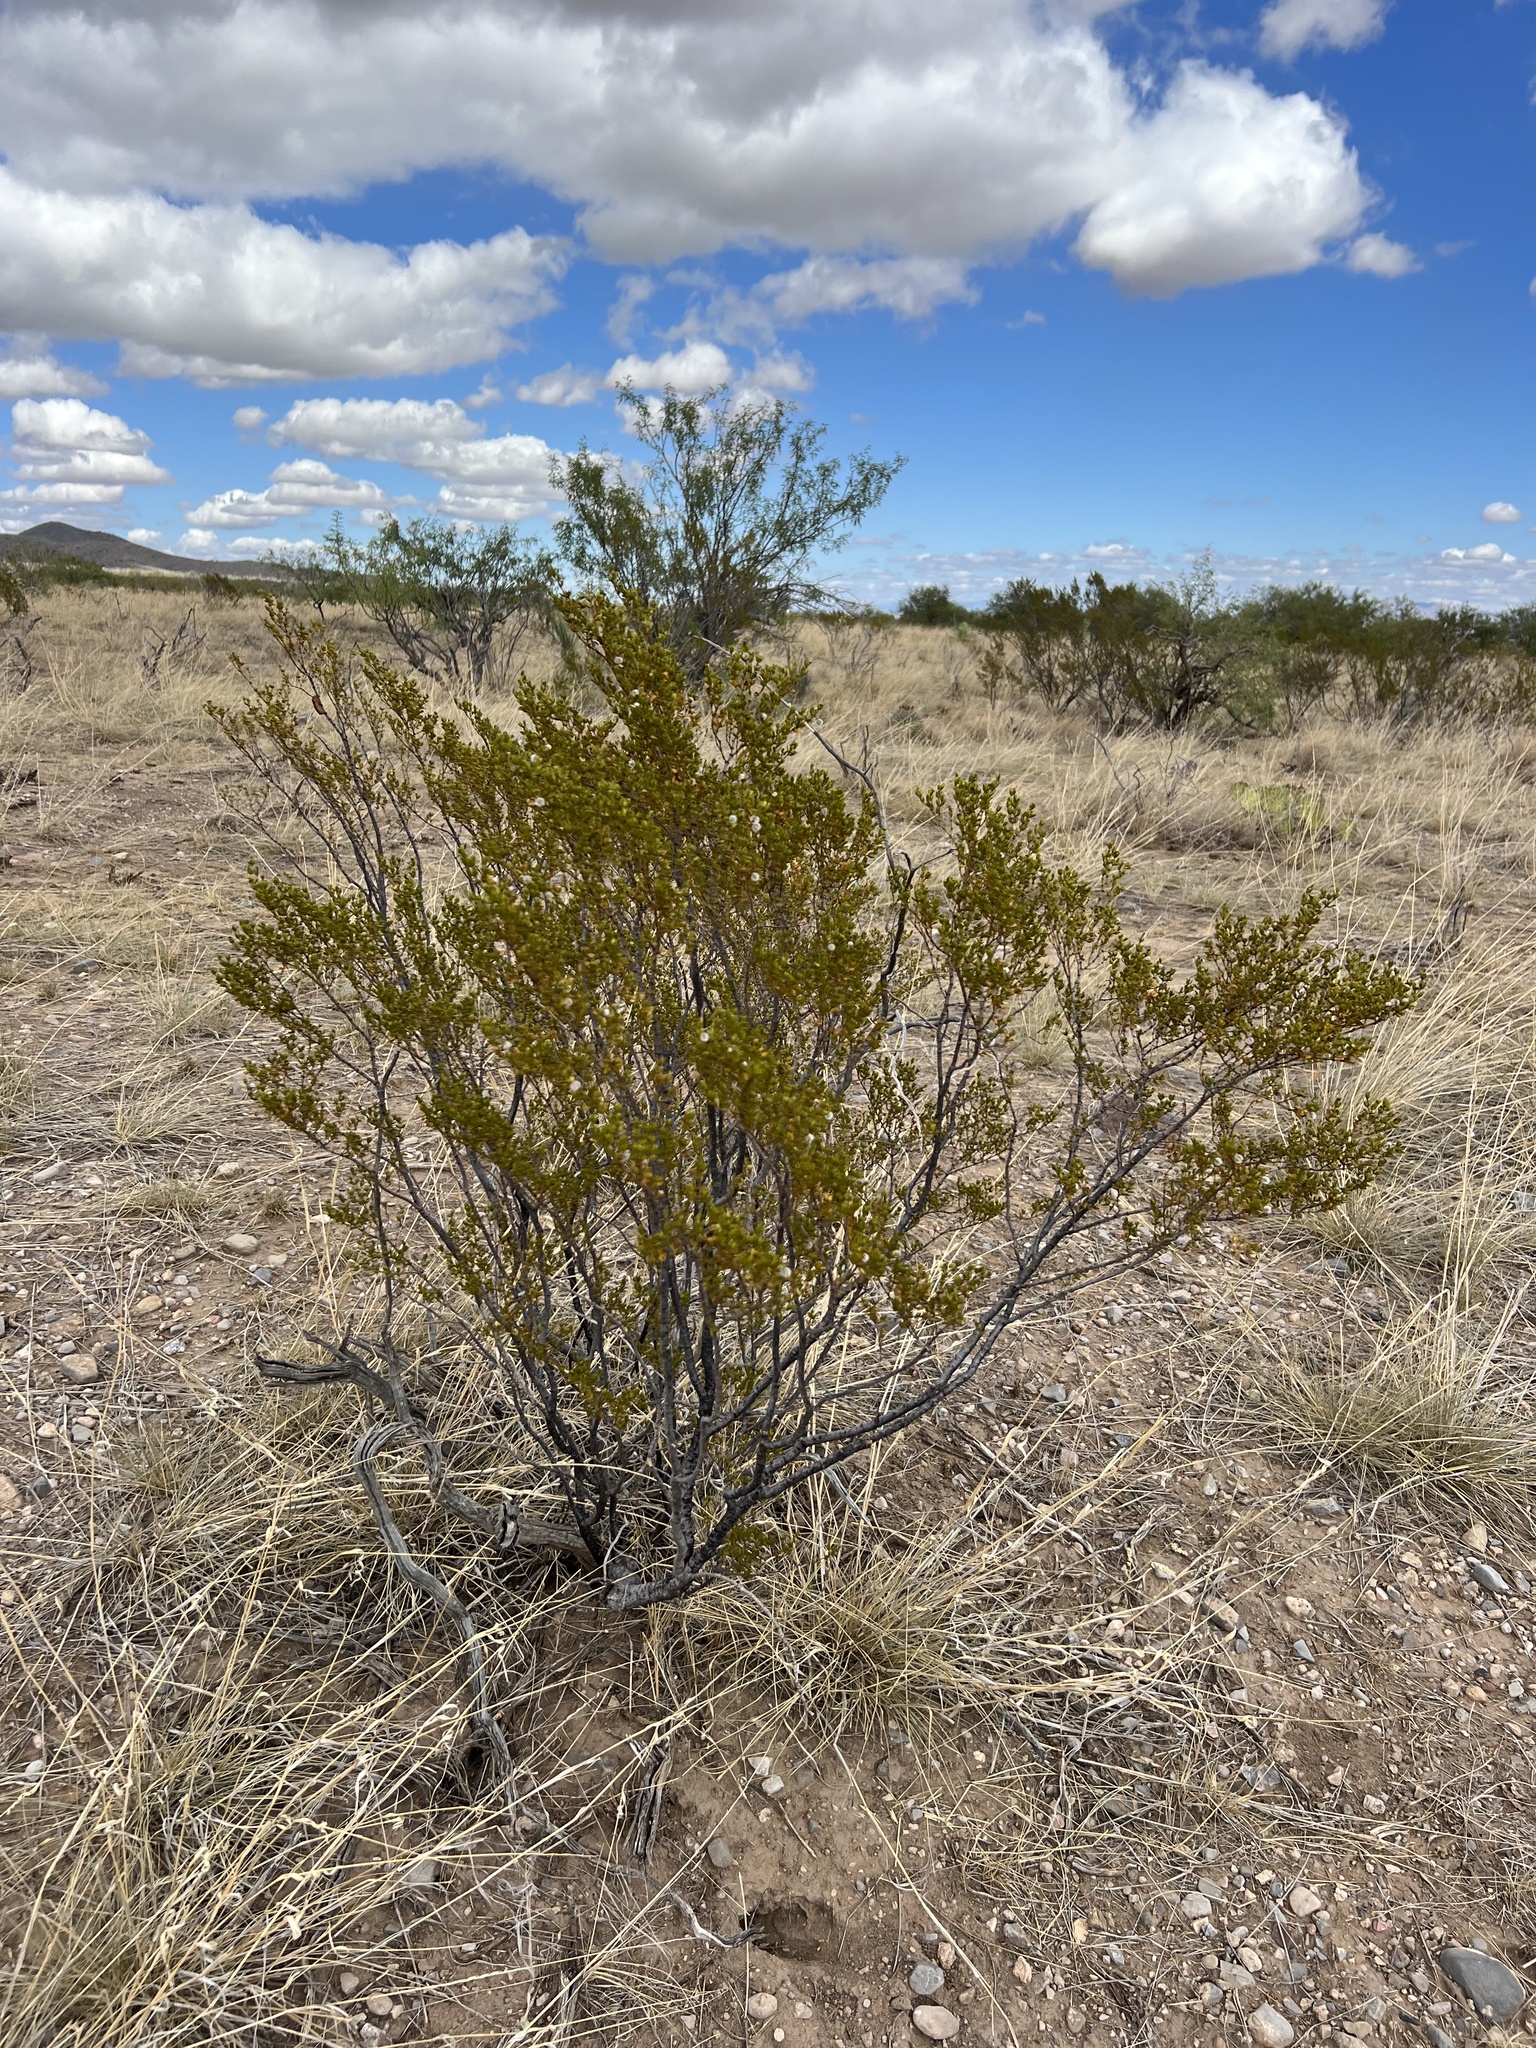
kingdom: Plantae
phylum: Tracheophyta
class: Magnoliopsida
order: Zygophyllales
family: Zygophyllaceae
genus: Larrea
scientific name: Larrea tridentata
